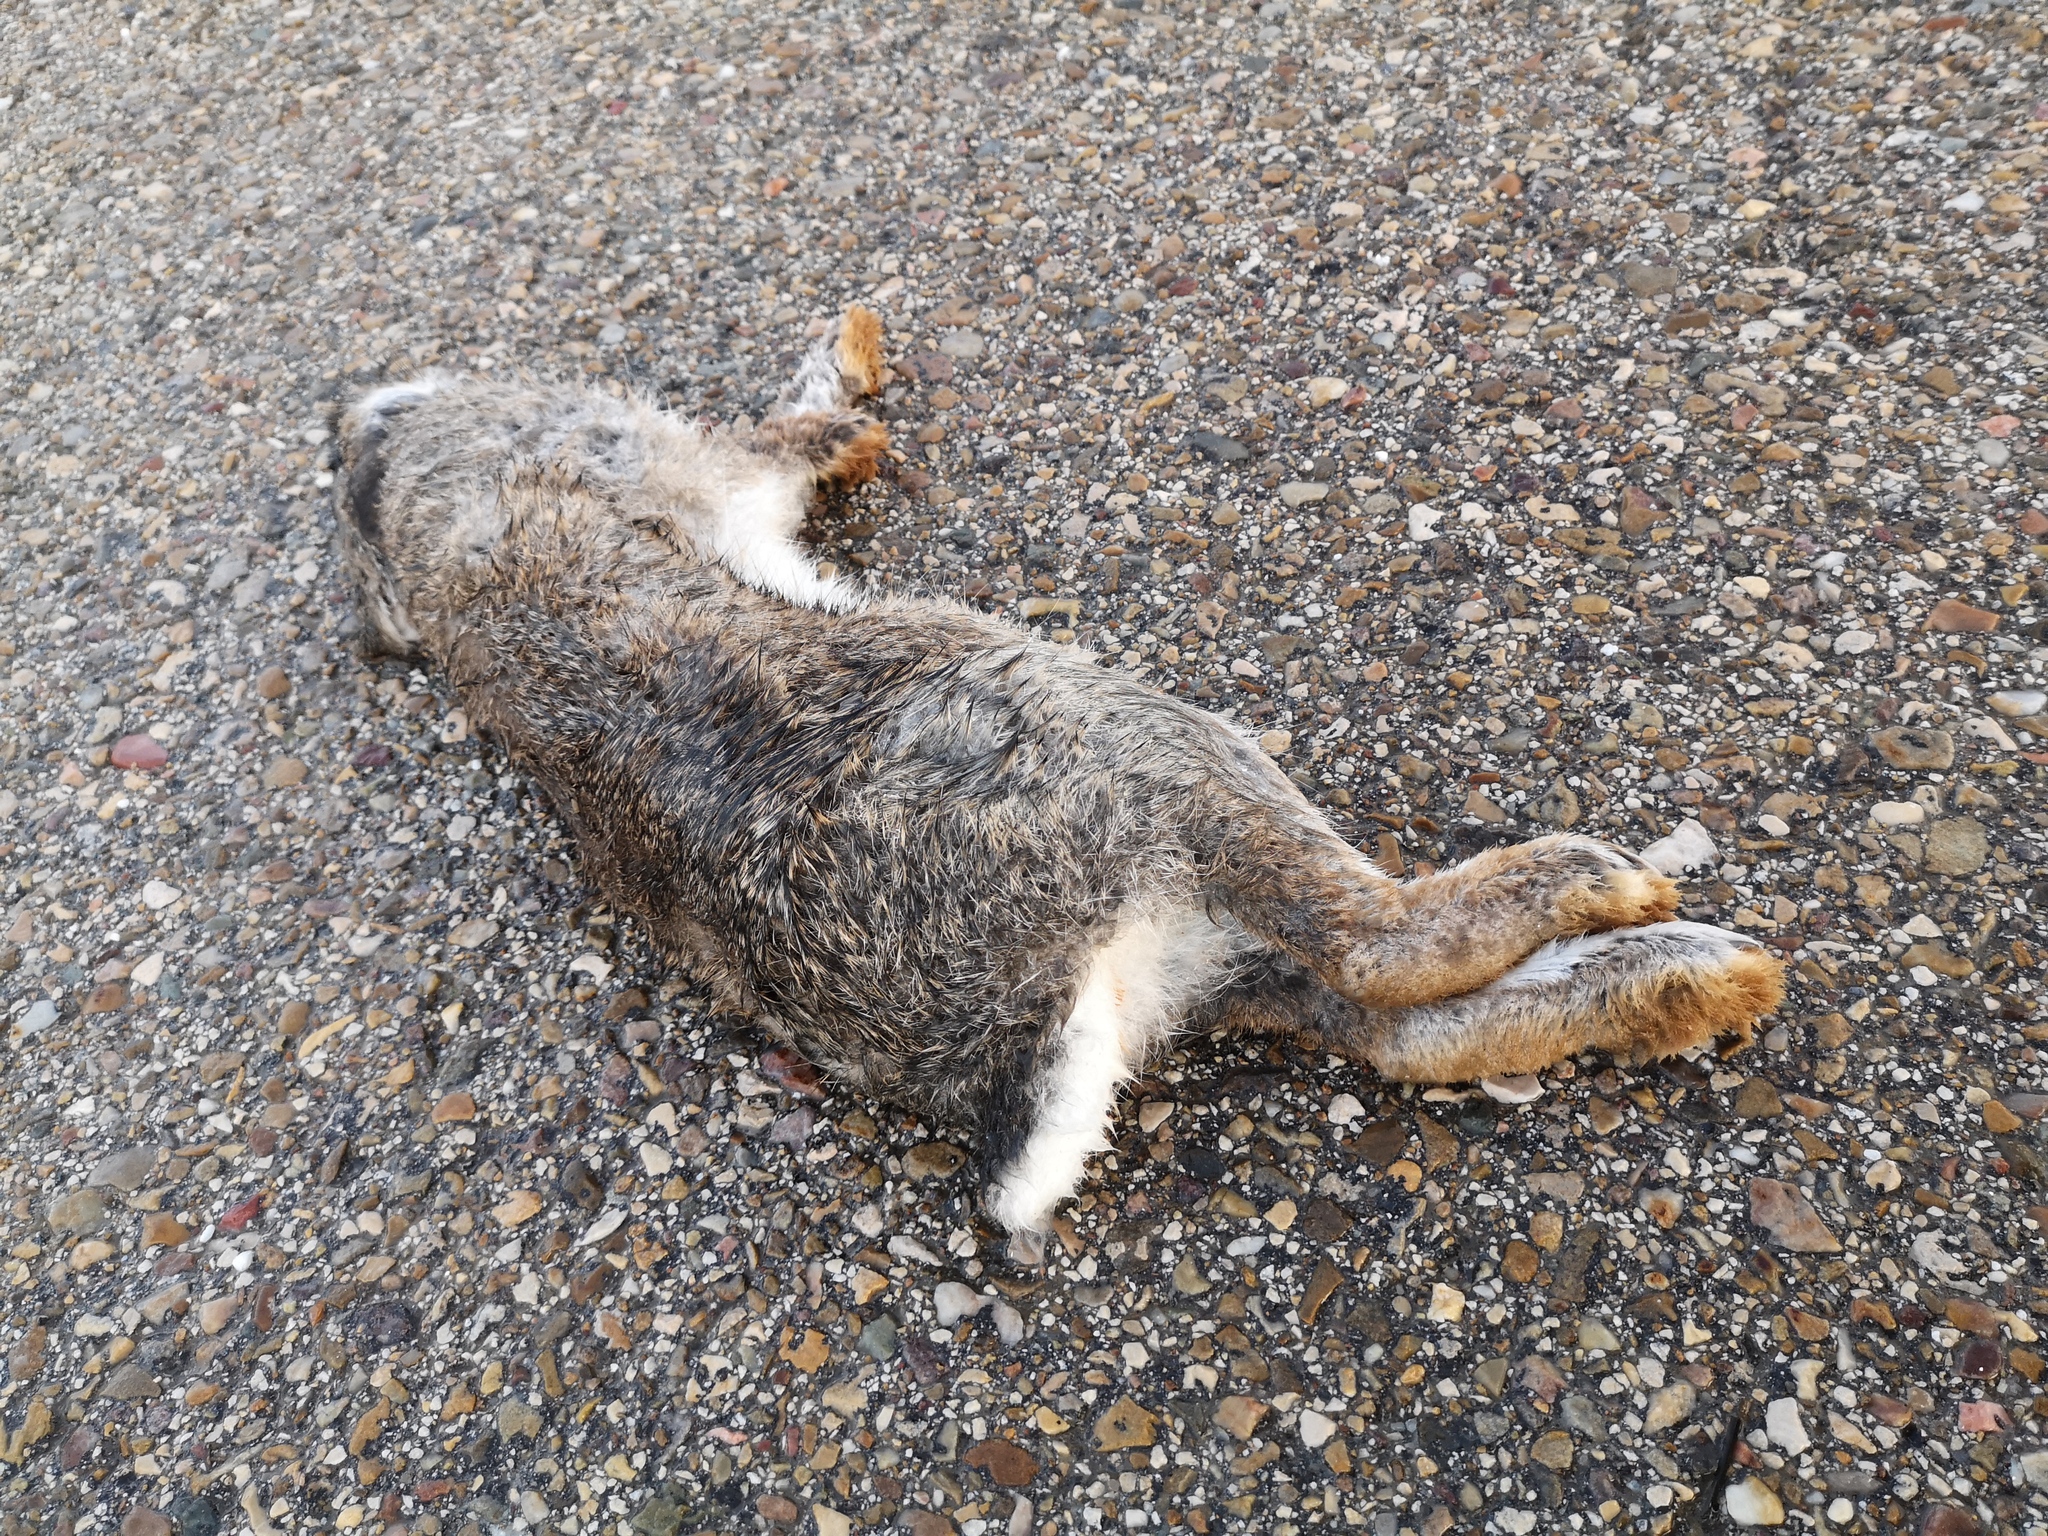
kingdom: Animalia
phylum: Chordata
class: Mammalia
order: Lagomorpha
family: Leporidae
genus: Oryctolagus
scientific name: Oryctolagus cuniculus
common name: European rabbit
